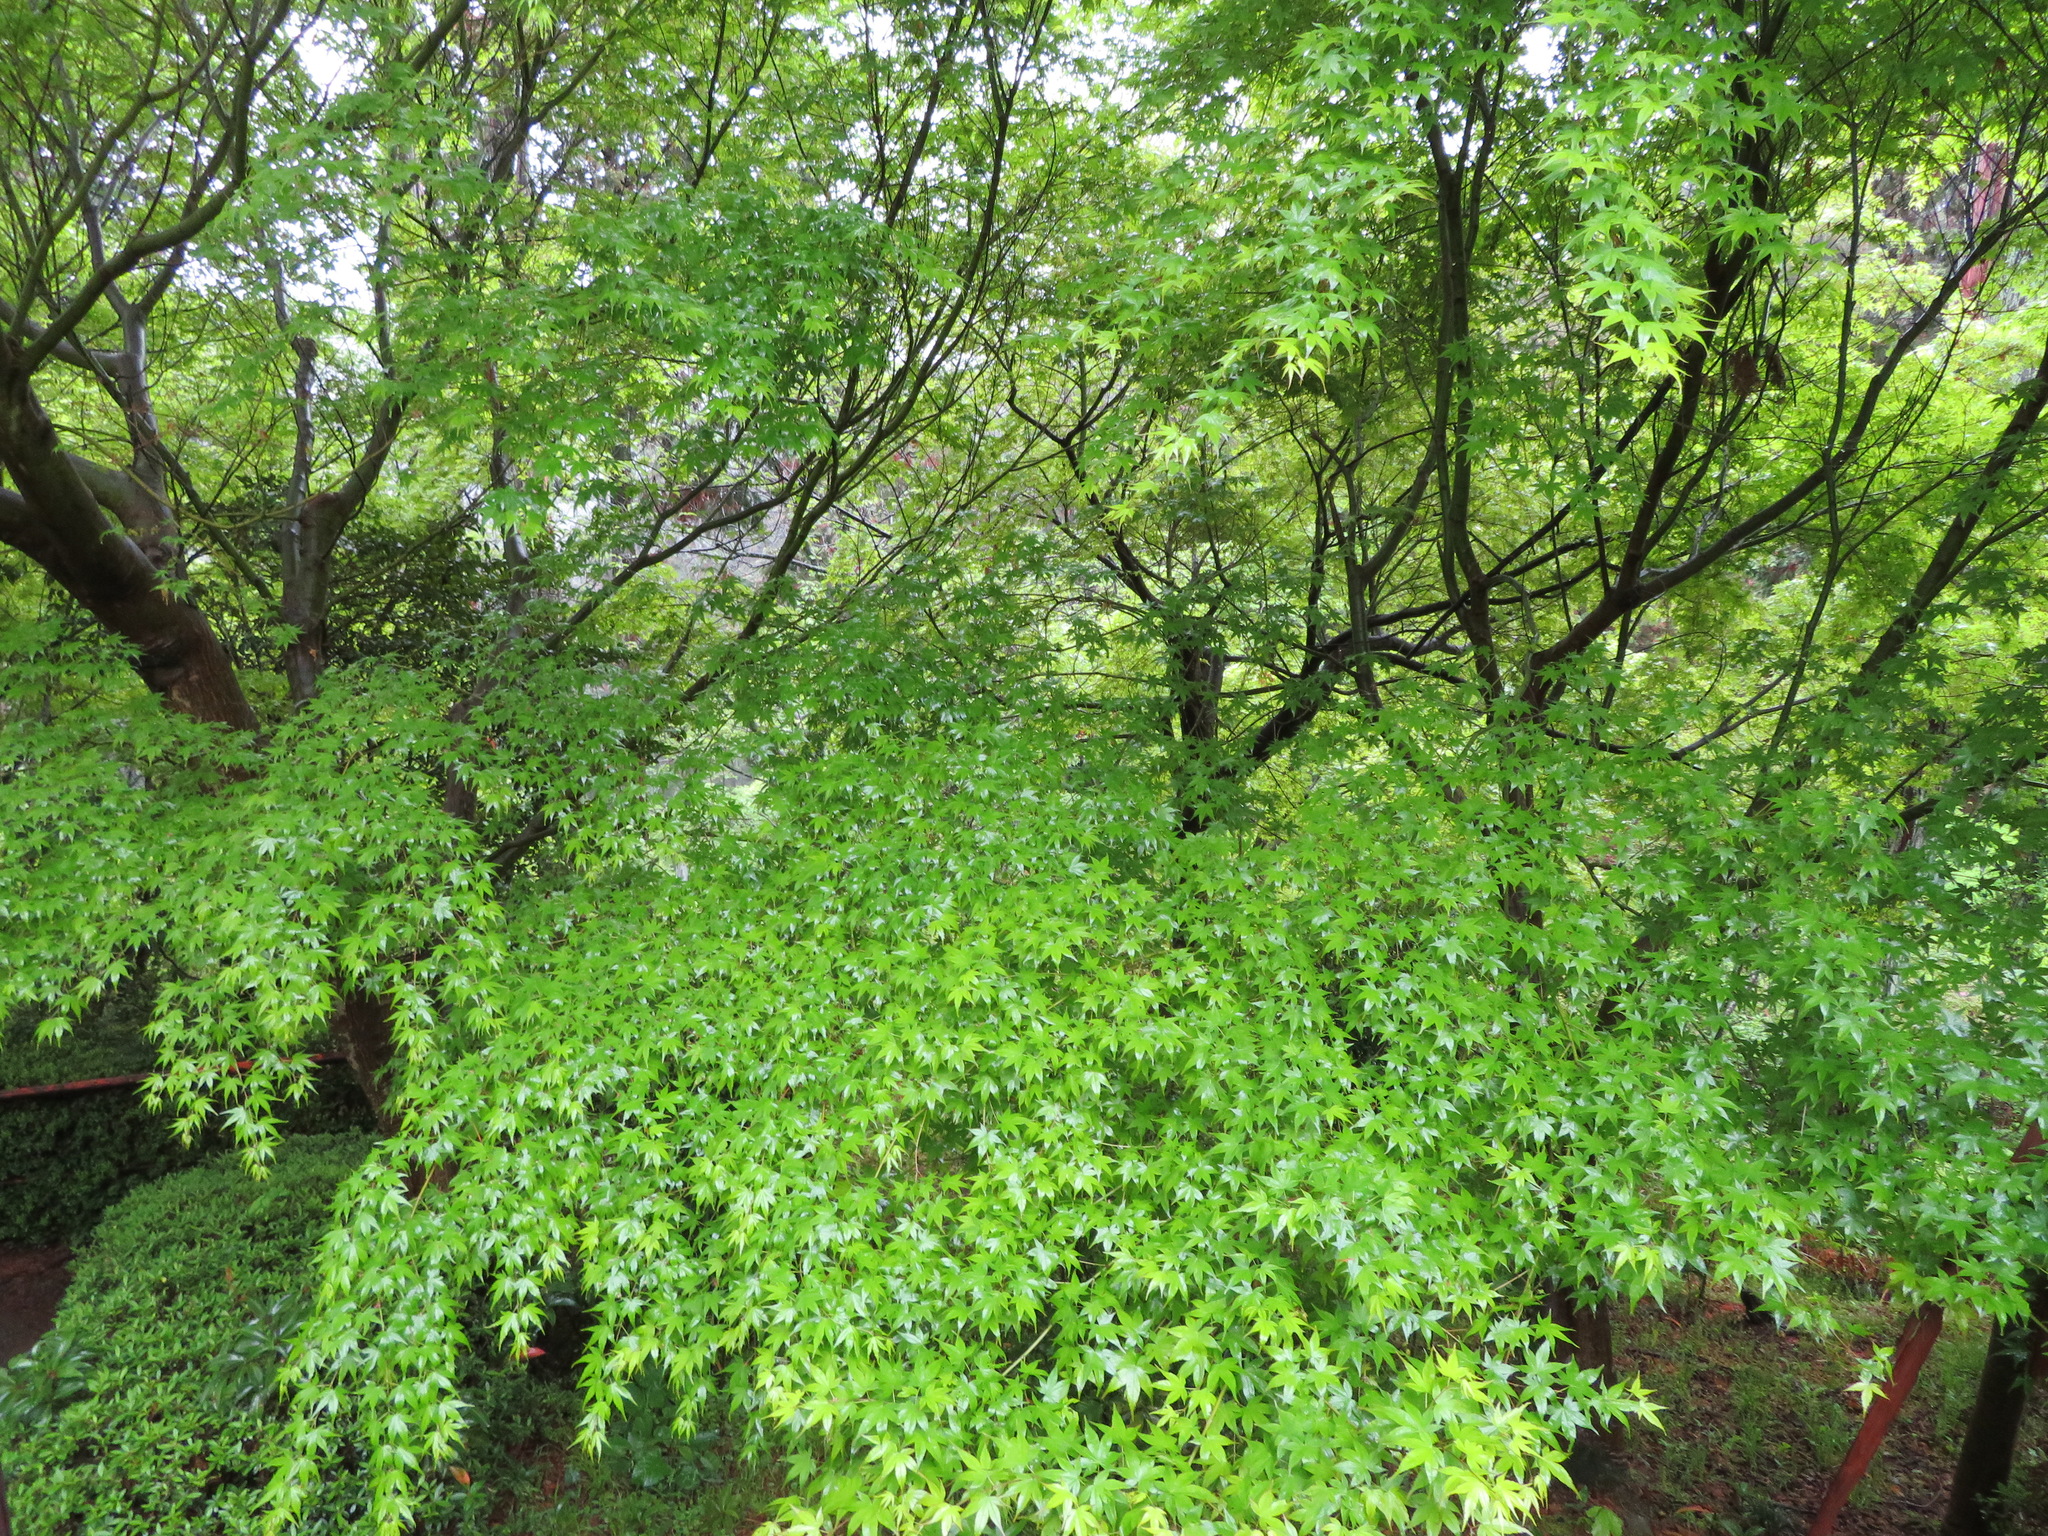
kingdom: Plantae
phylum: Tracheophyta
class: Magnoliopsida
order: Sapindales
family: Sapindaceae
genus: Acer
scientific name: Acer palmatum
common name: Japanese maple
